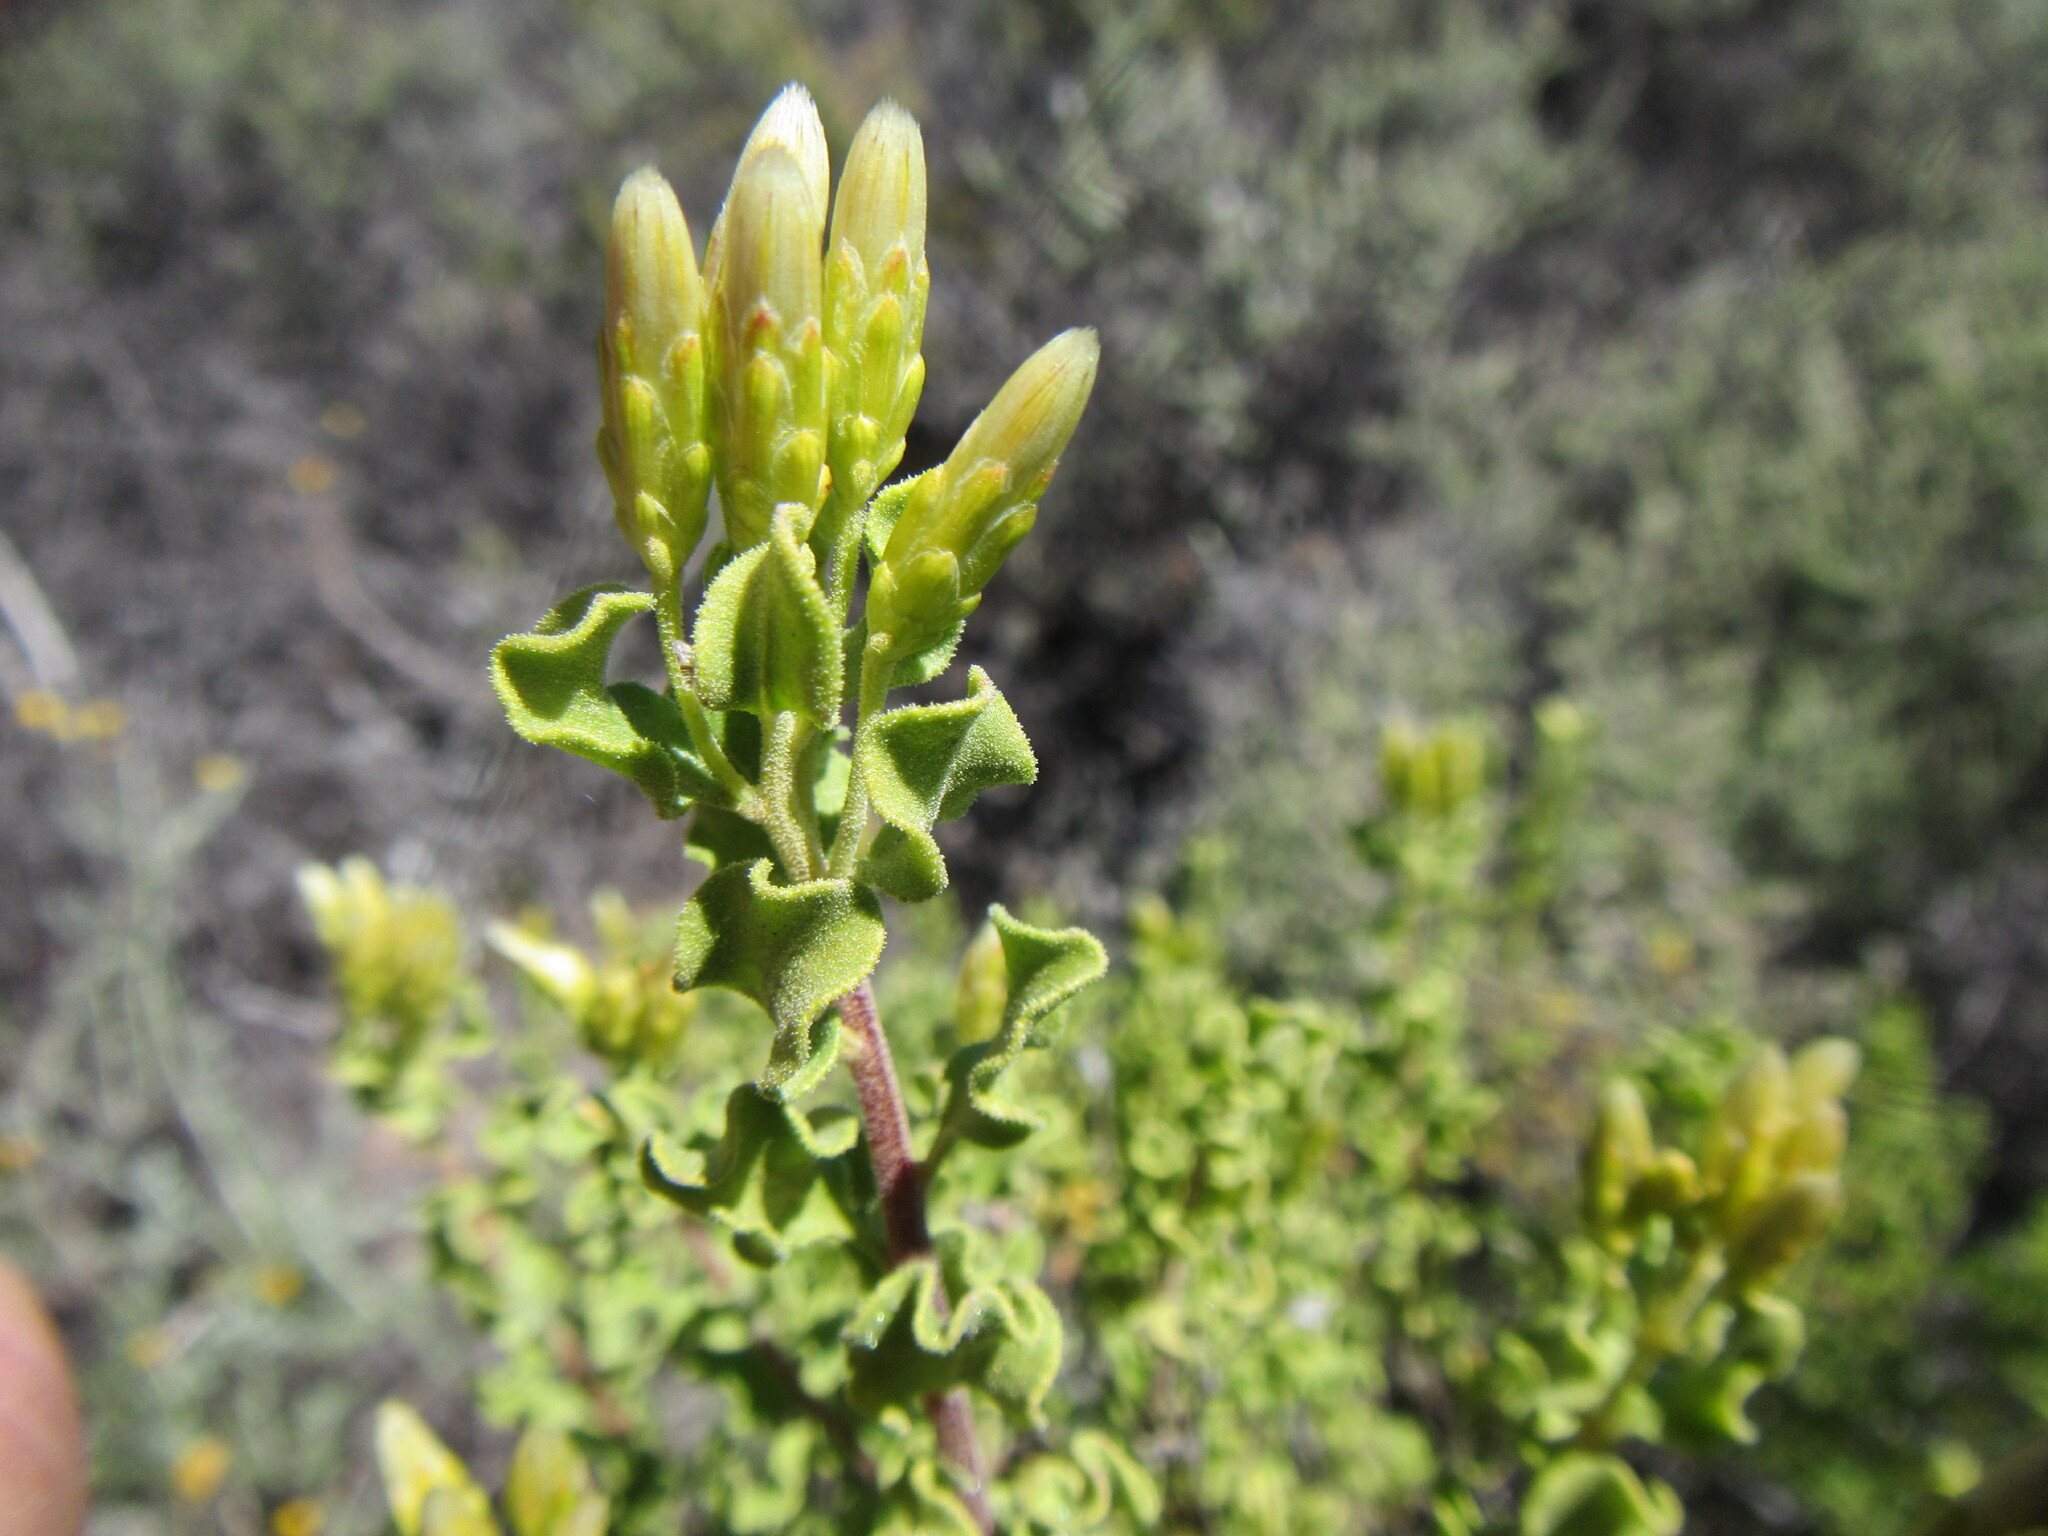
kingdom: Plantae
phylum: Tracheophyta
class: Magnoliopsida
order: Asterales
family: Asteraceae
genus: Pteronia
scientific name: Pteronia undulata
